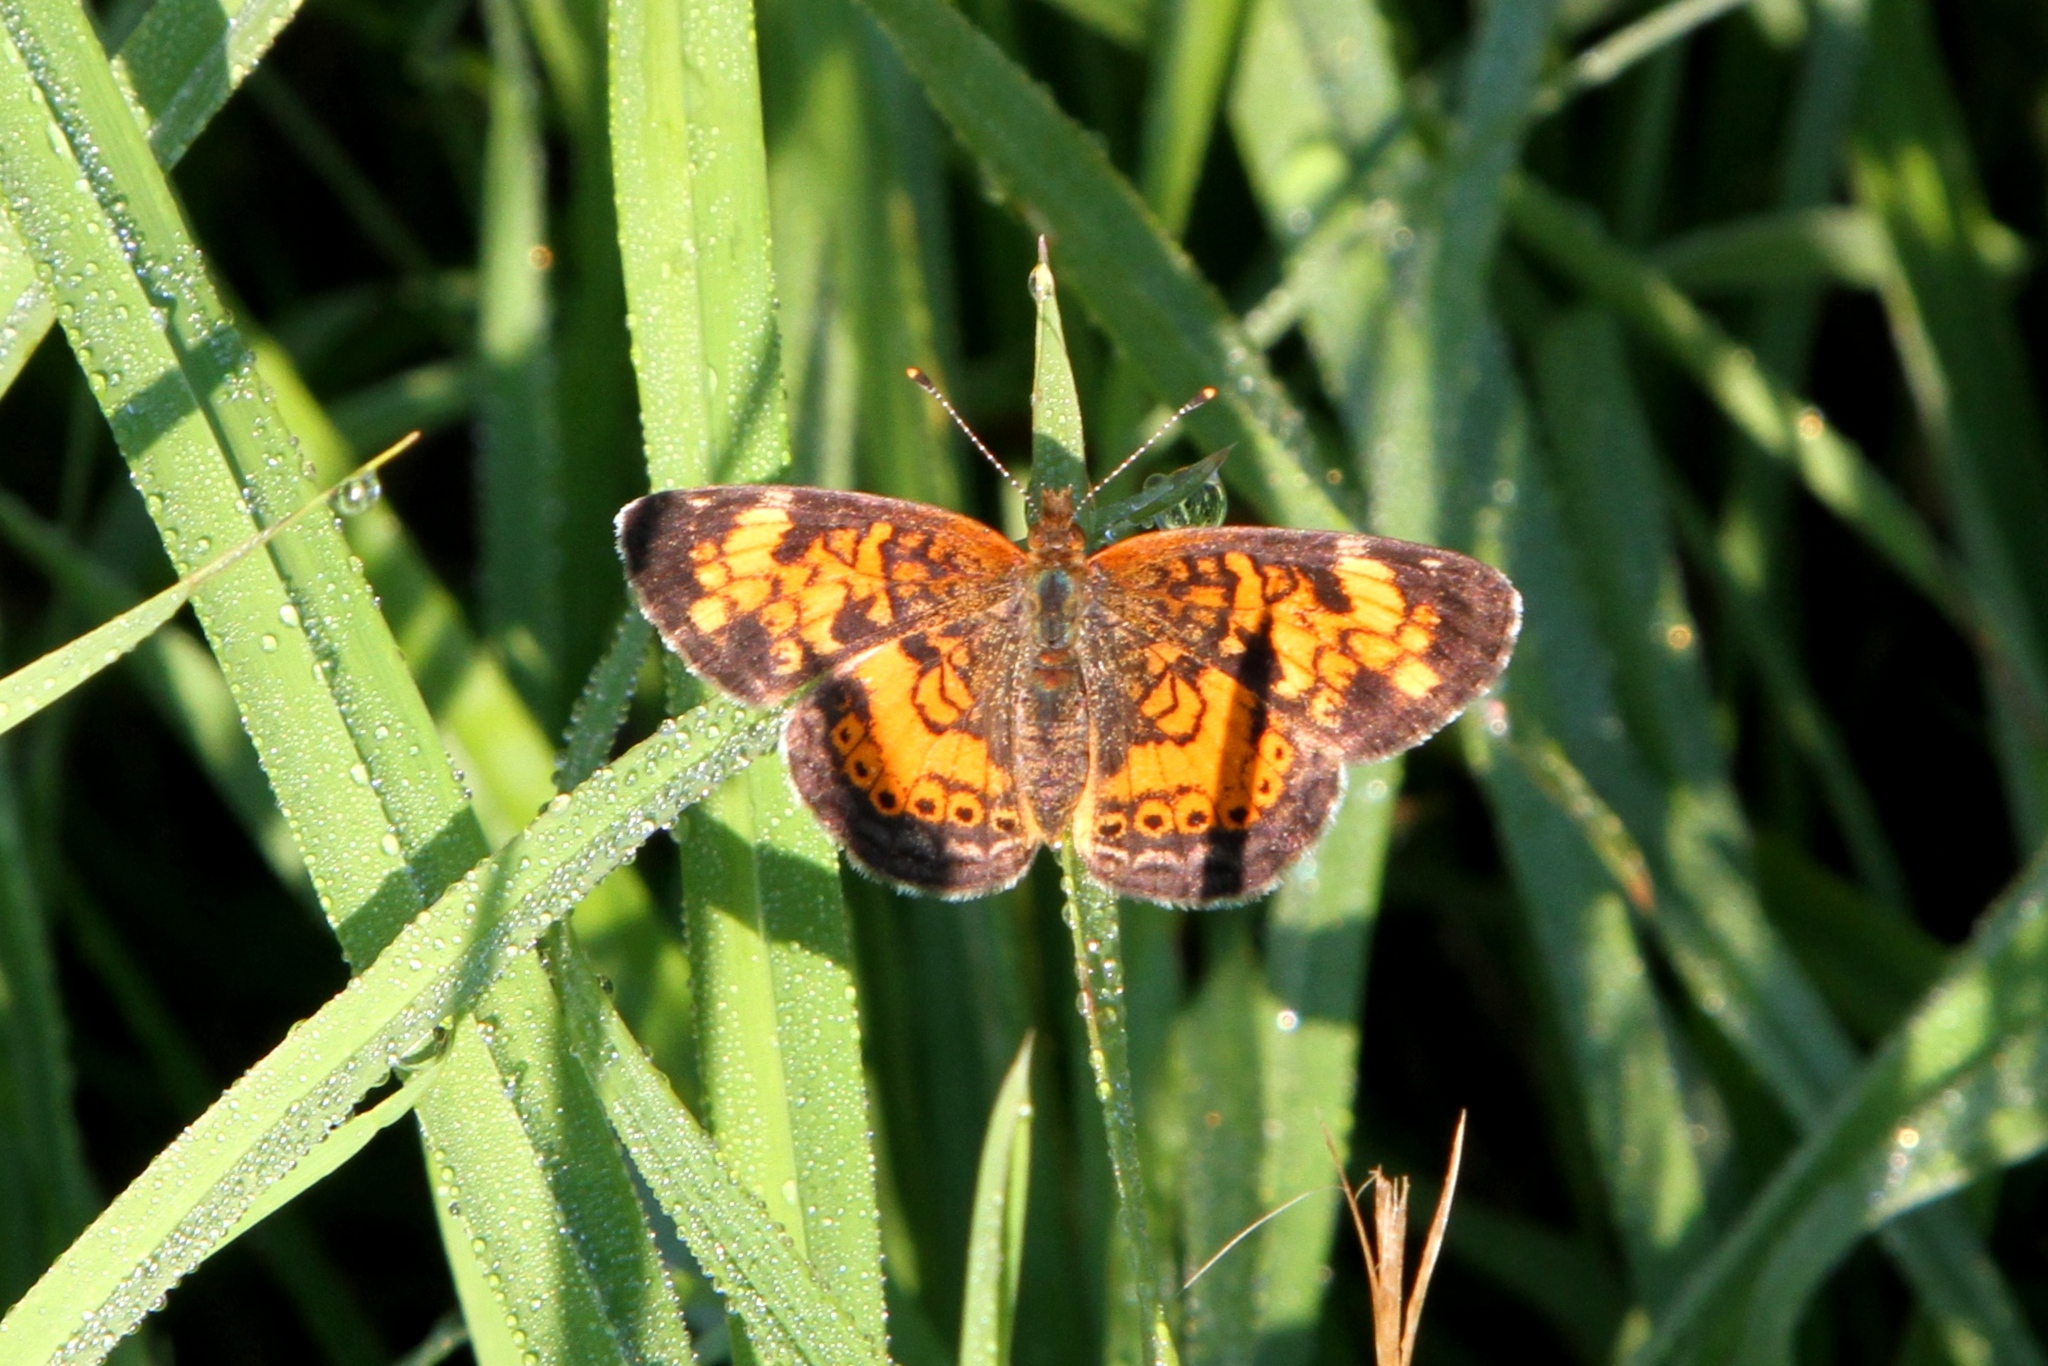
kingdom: Animalia
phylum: Arthropoda
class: Insecta
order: Lepidoptera
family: Nymphalidae
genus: Phyciodes
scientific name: Phyciodes tharos
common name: Pearl crescent
